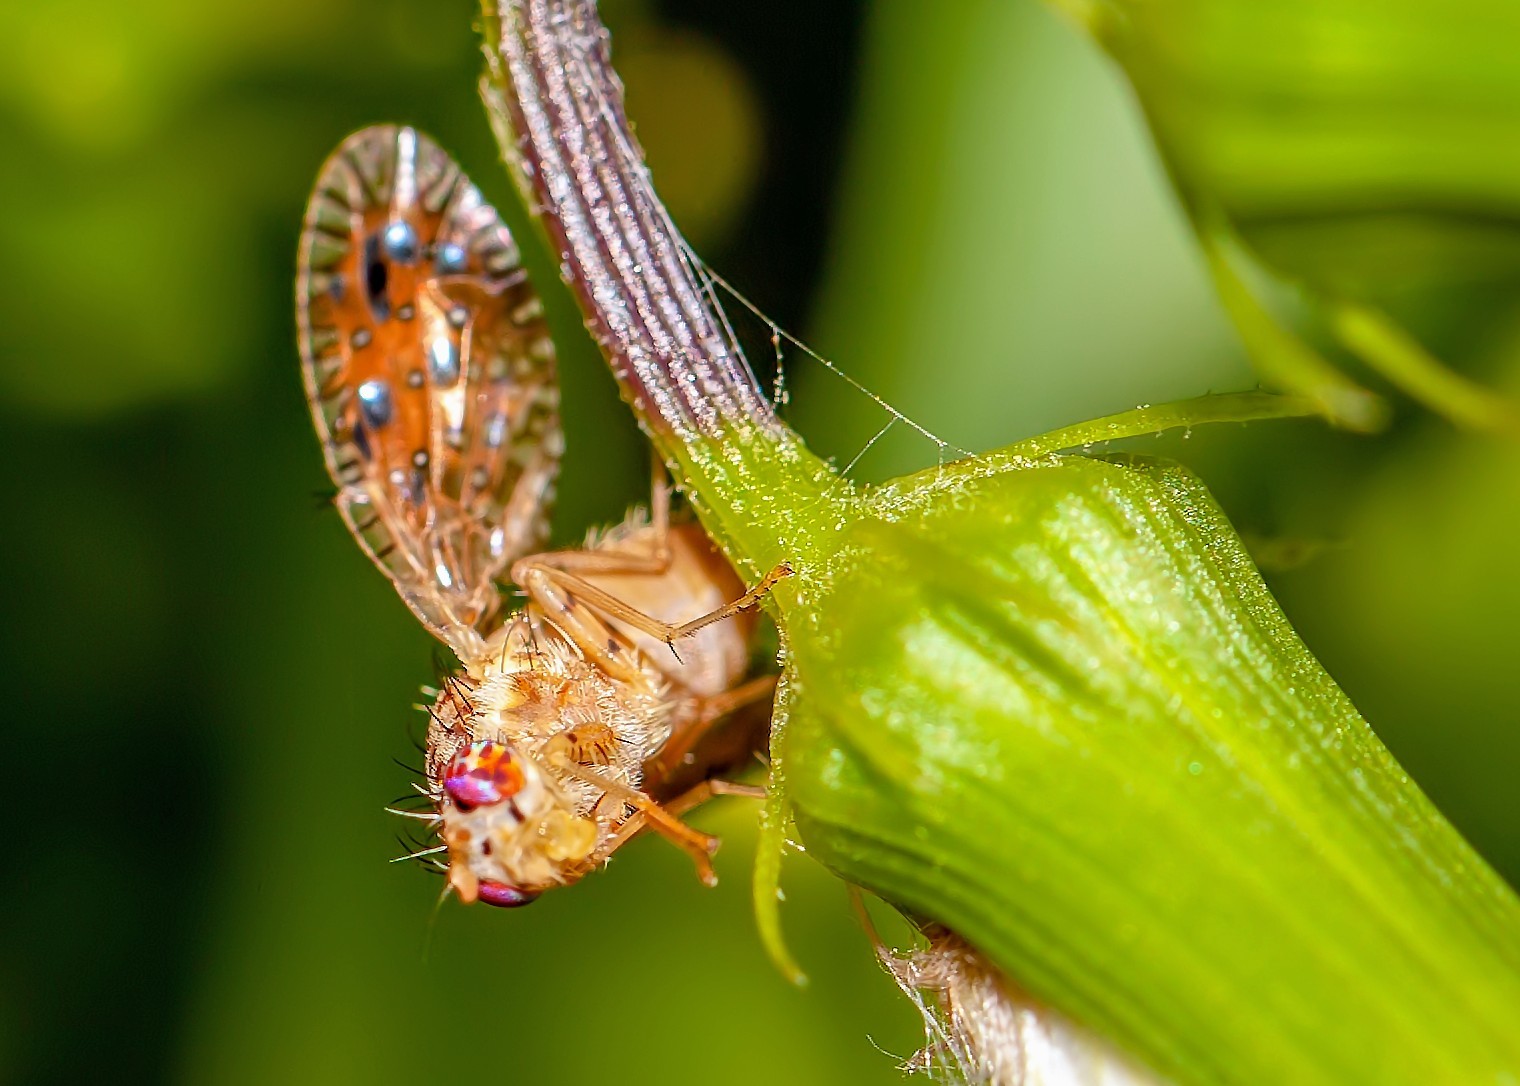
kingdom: Animalia
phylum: Arthropoda
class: Insecta
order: Diptera
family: Tephritidae
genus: Paracantha
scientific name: Paracantha culta
